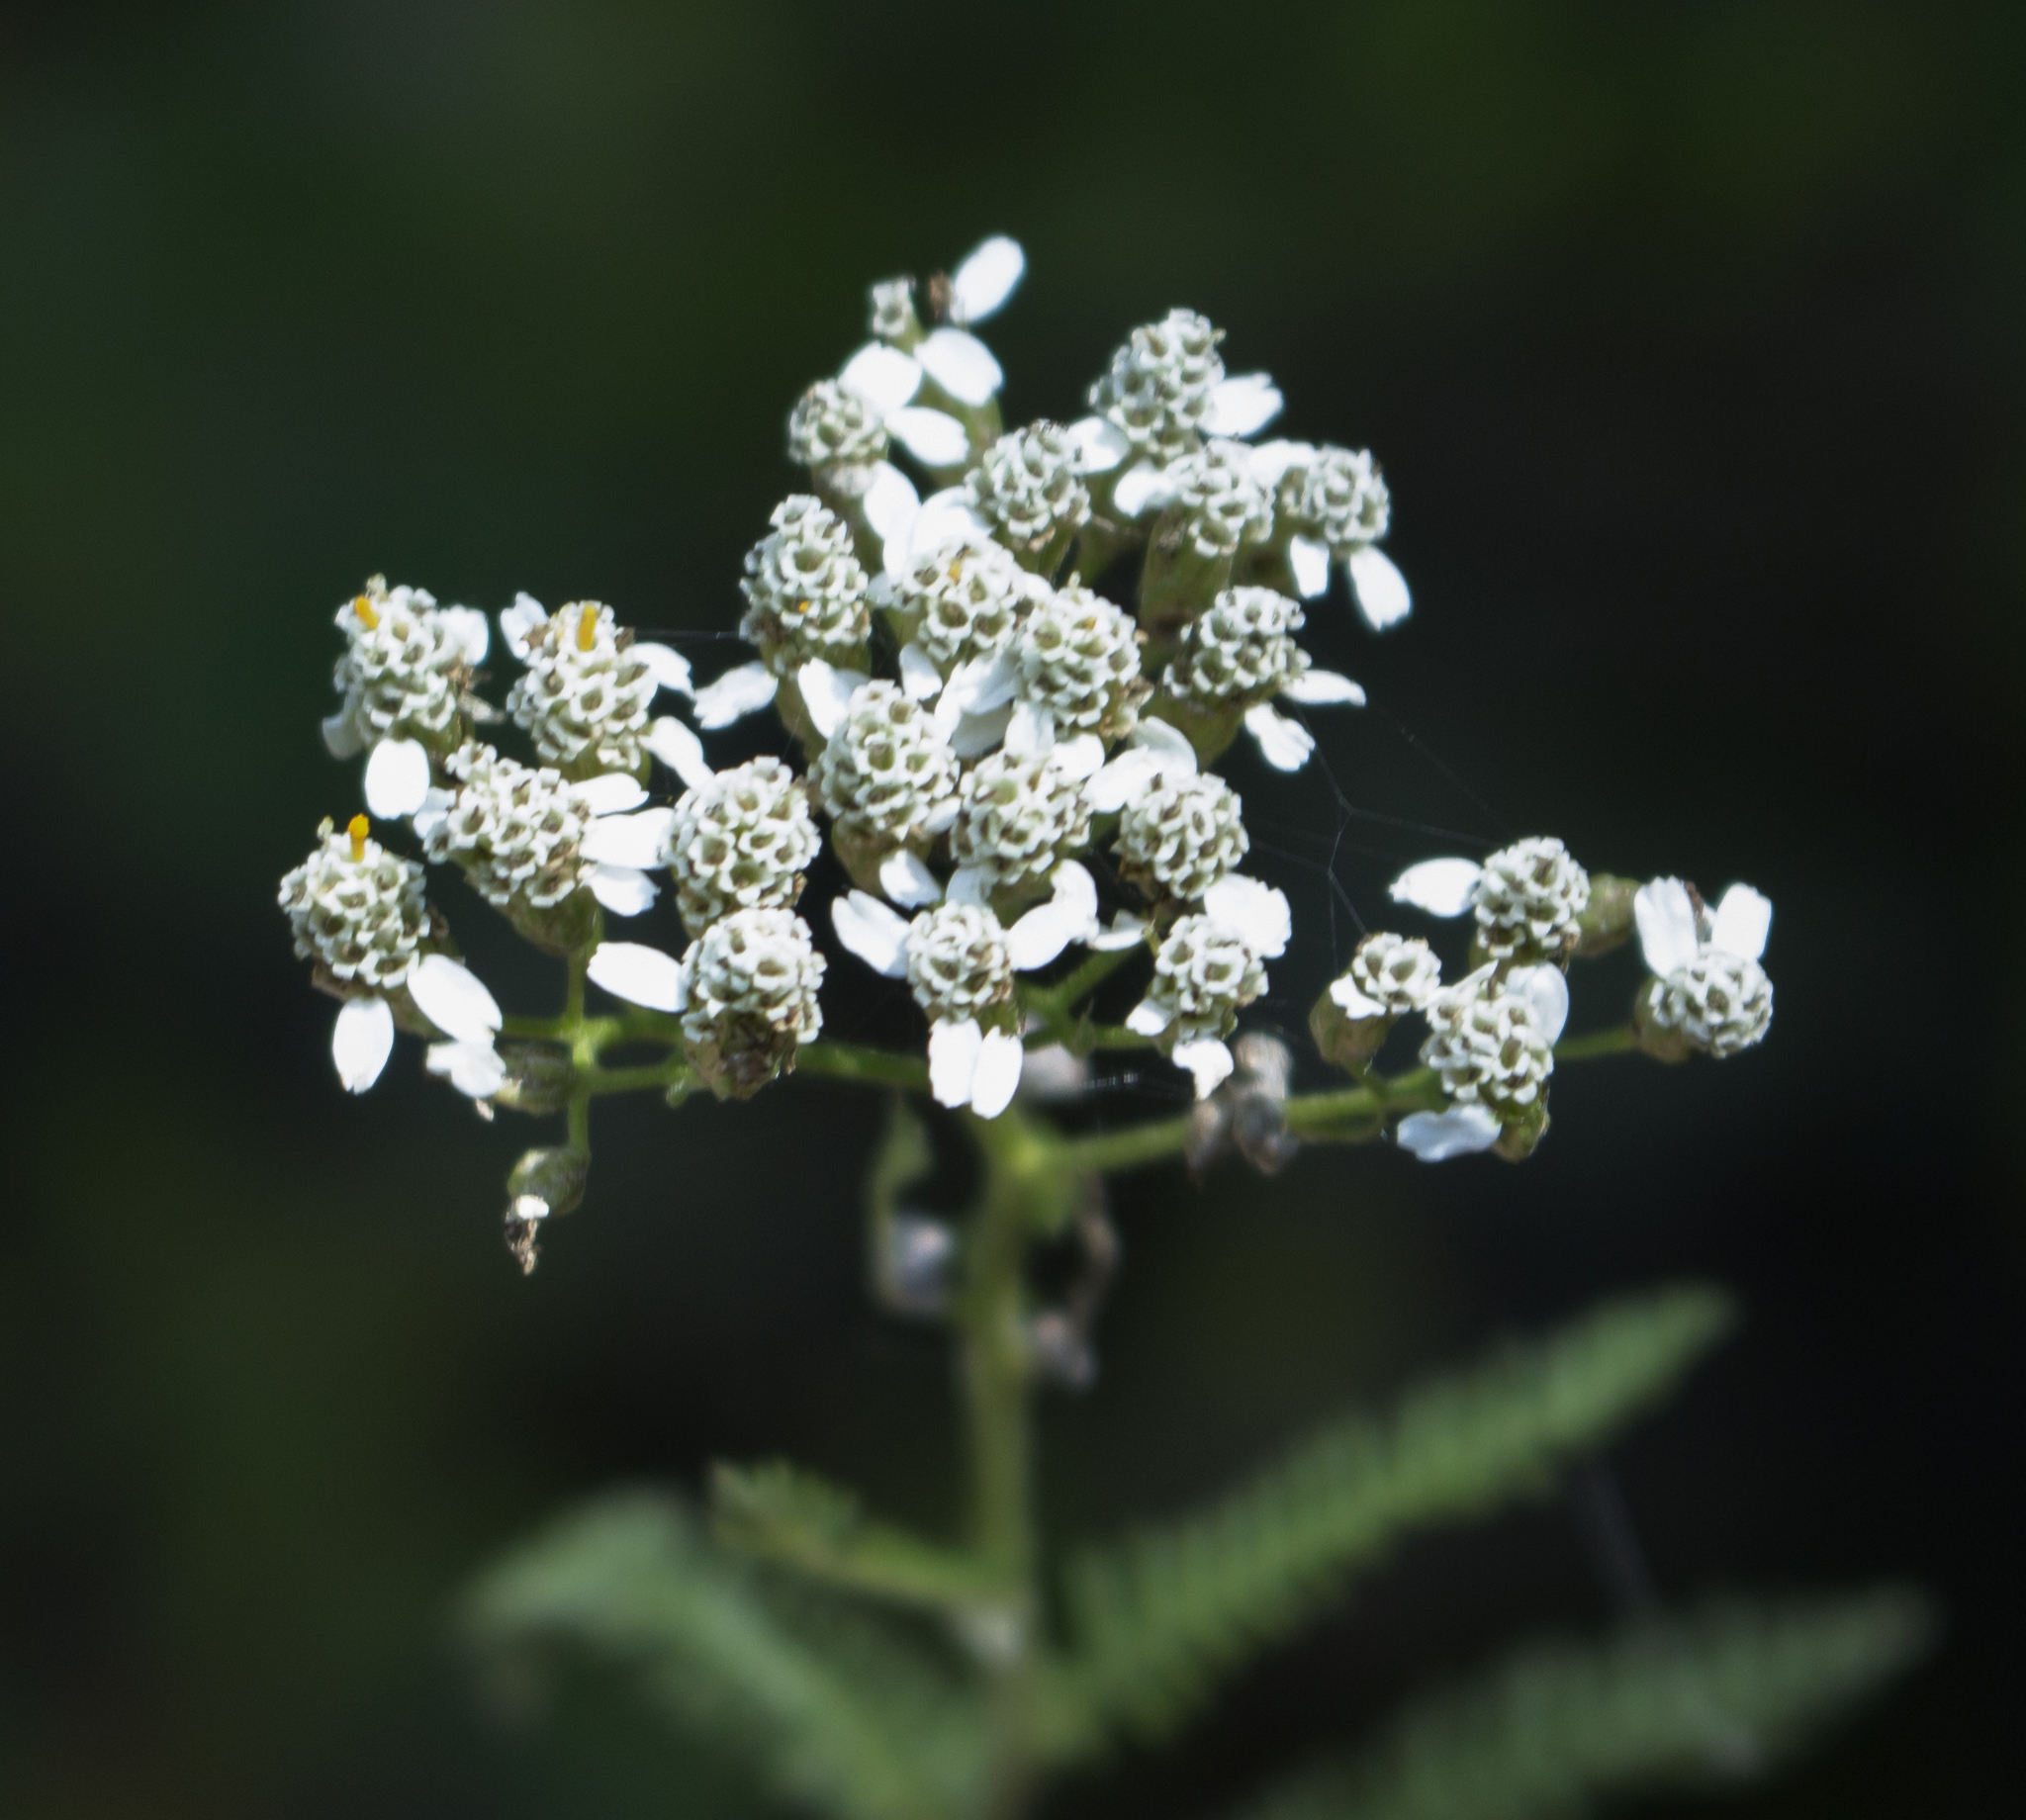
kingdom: Plantae
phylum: Tracheophyta
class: Magnoliopsida
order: Asterales
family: Asteraceae
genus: Achillea
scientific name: Achillea millefolium
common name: Yarrow
